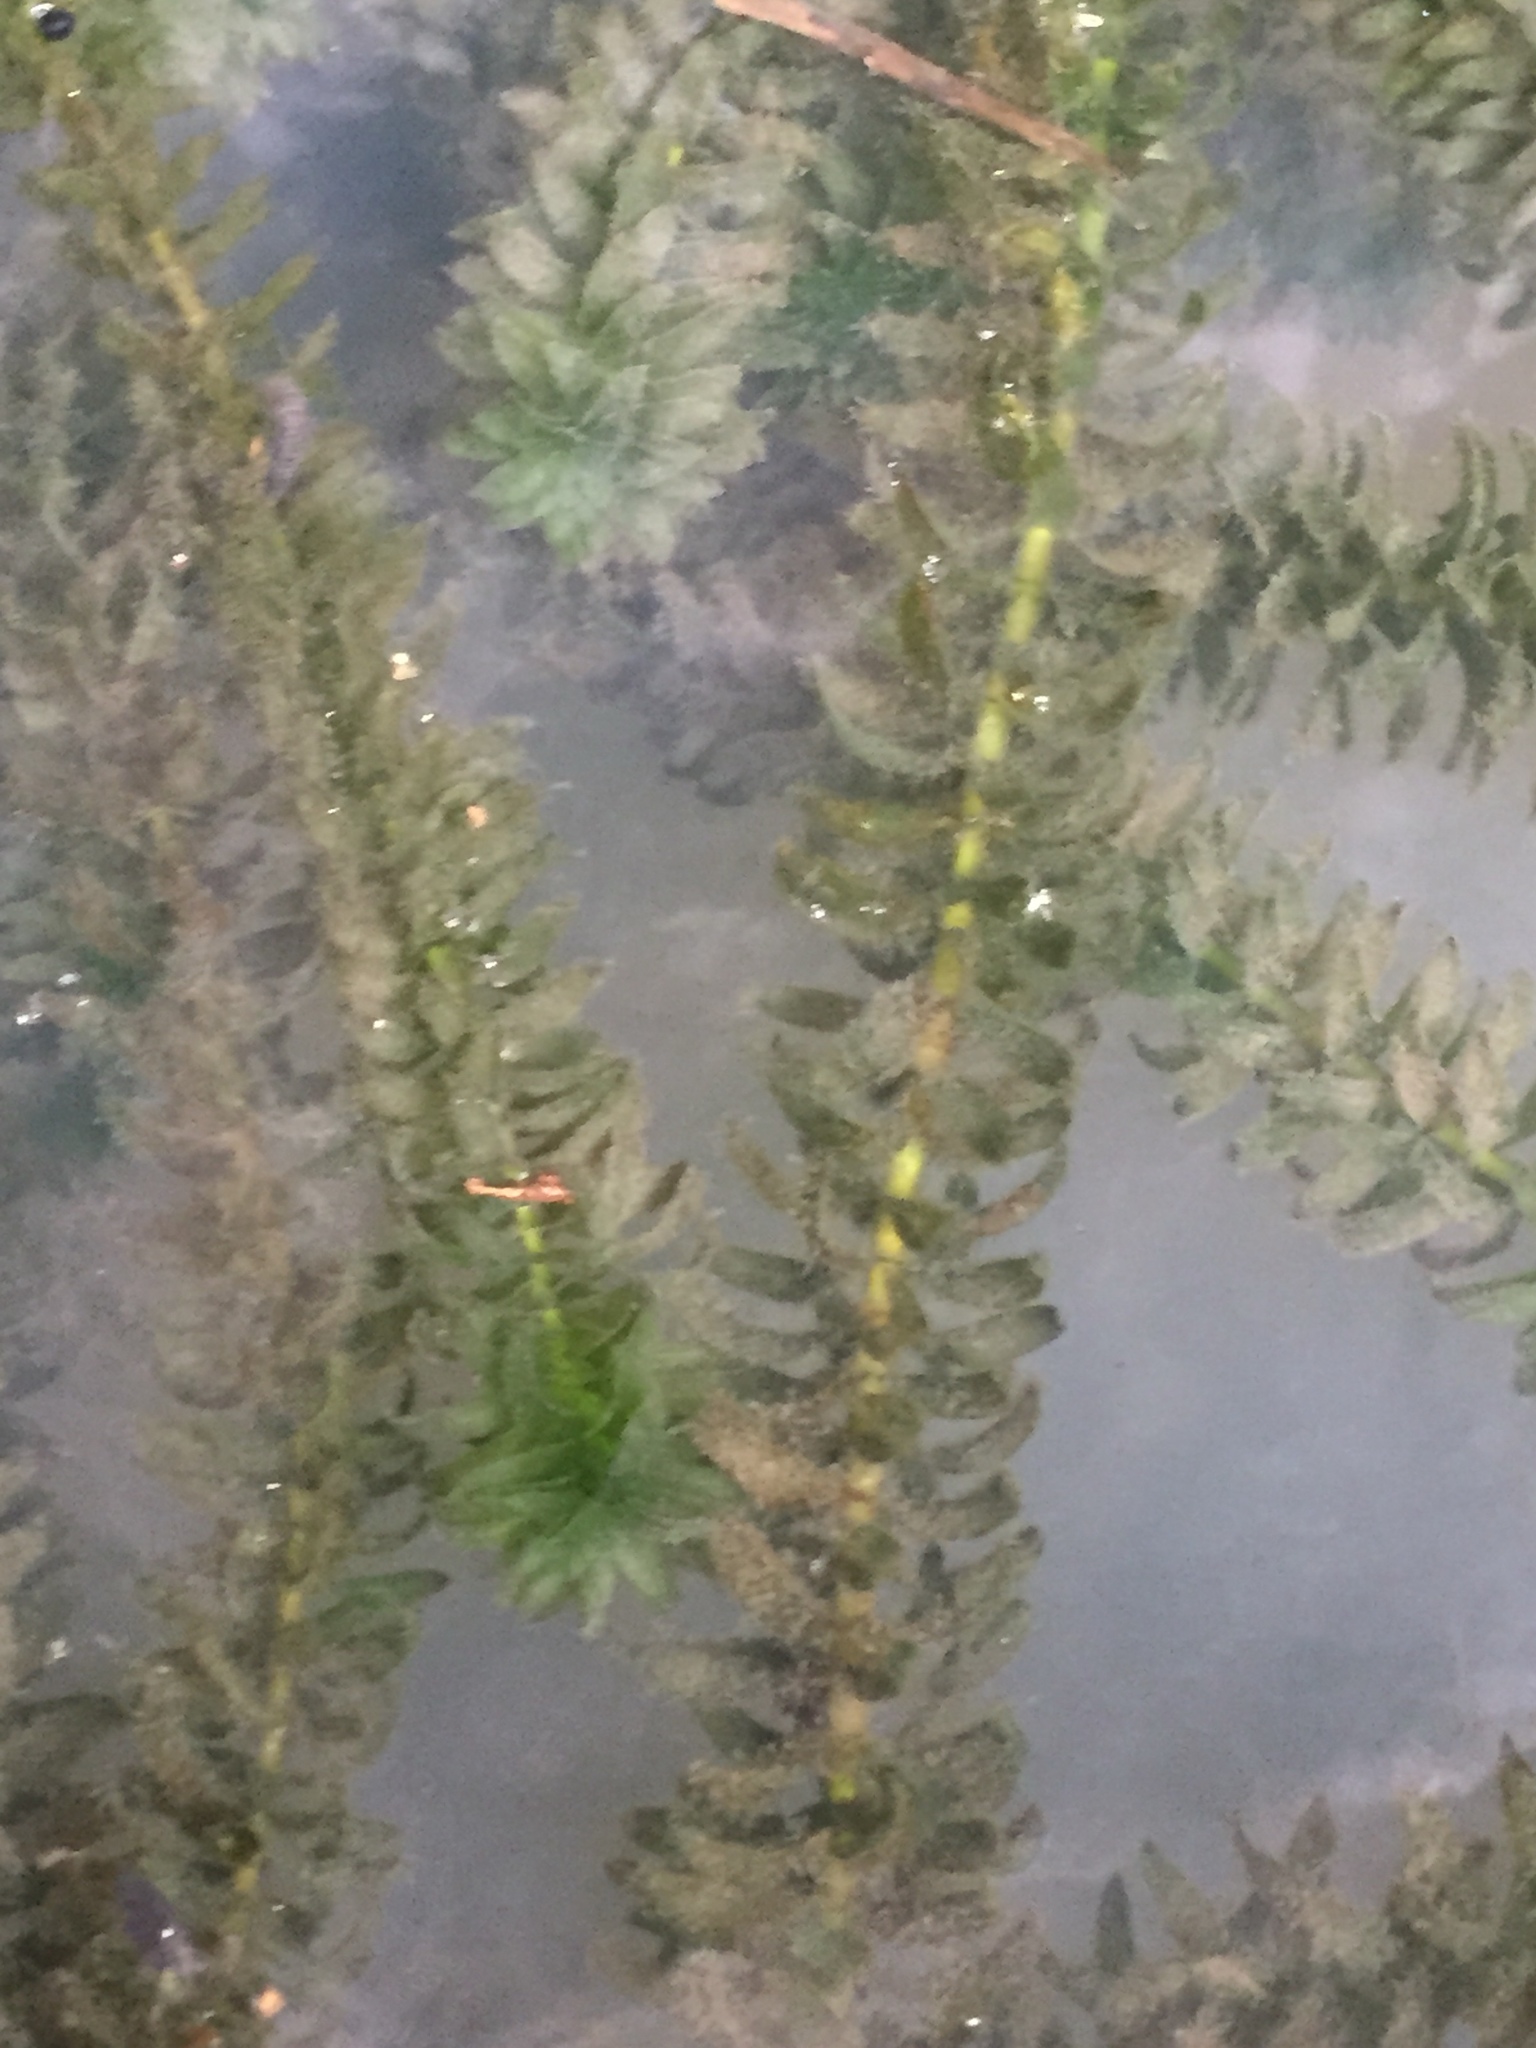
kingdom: Plantae
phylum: Tracheophyta
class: Liliopsida
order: Alismatales
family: Hydrocharitaceae
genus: Elodea
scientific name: Elodea canadensis
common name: Canadian waterweed
